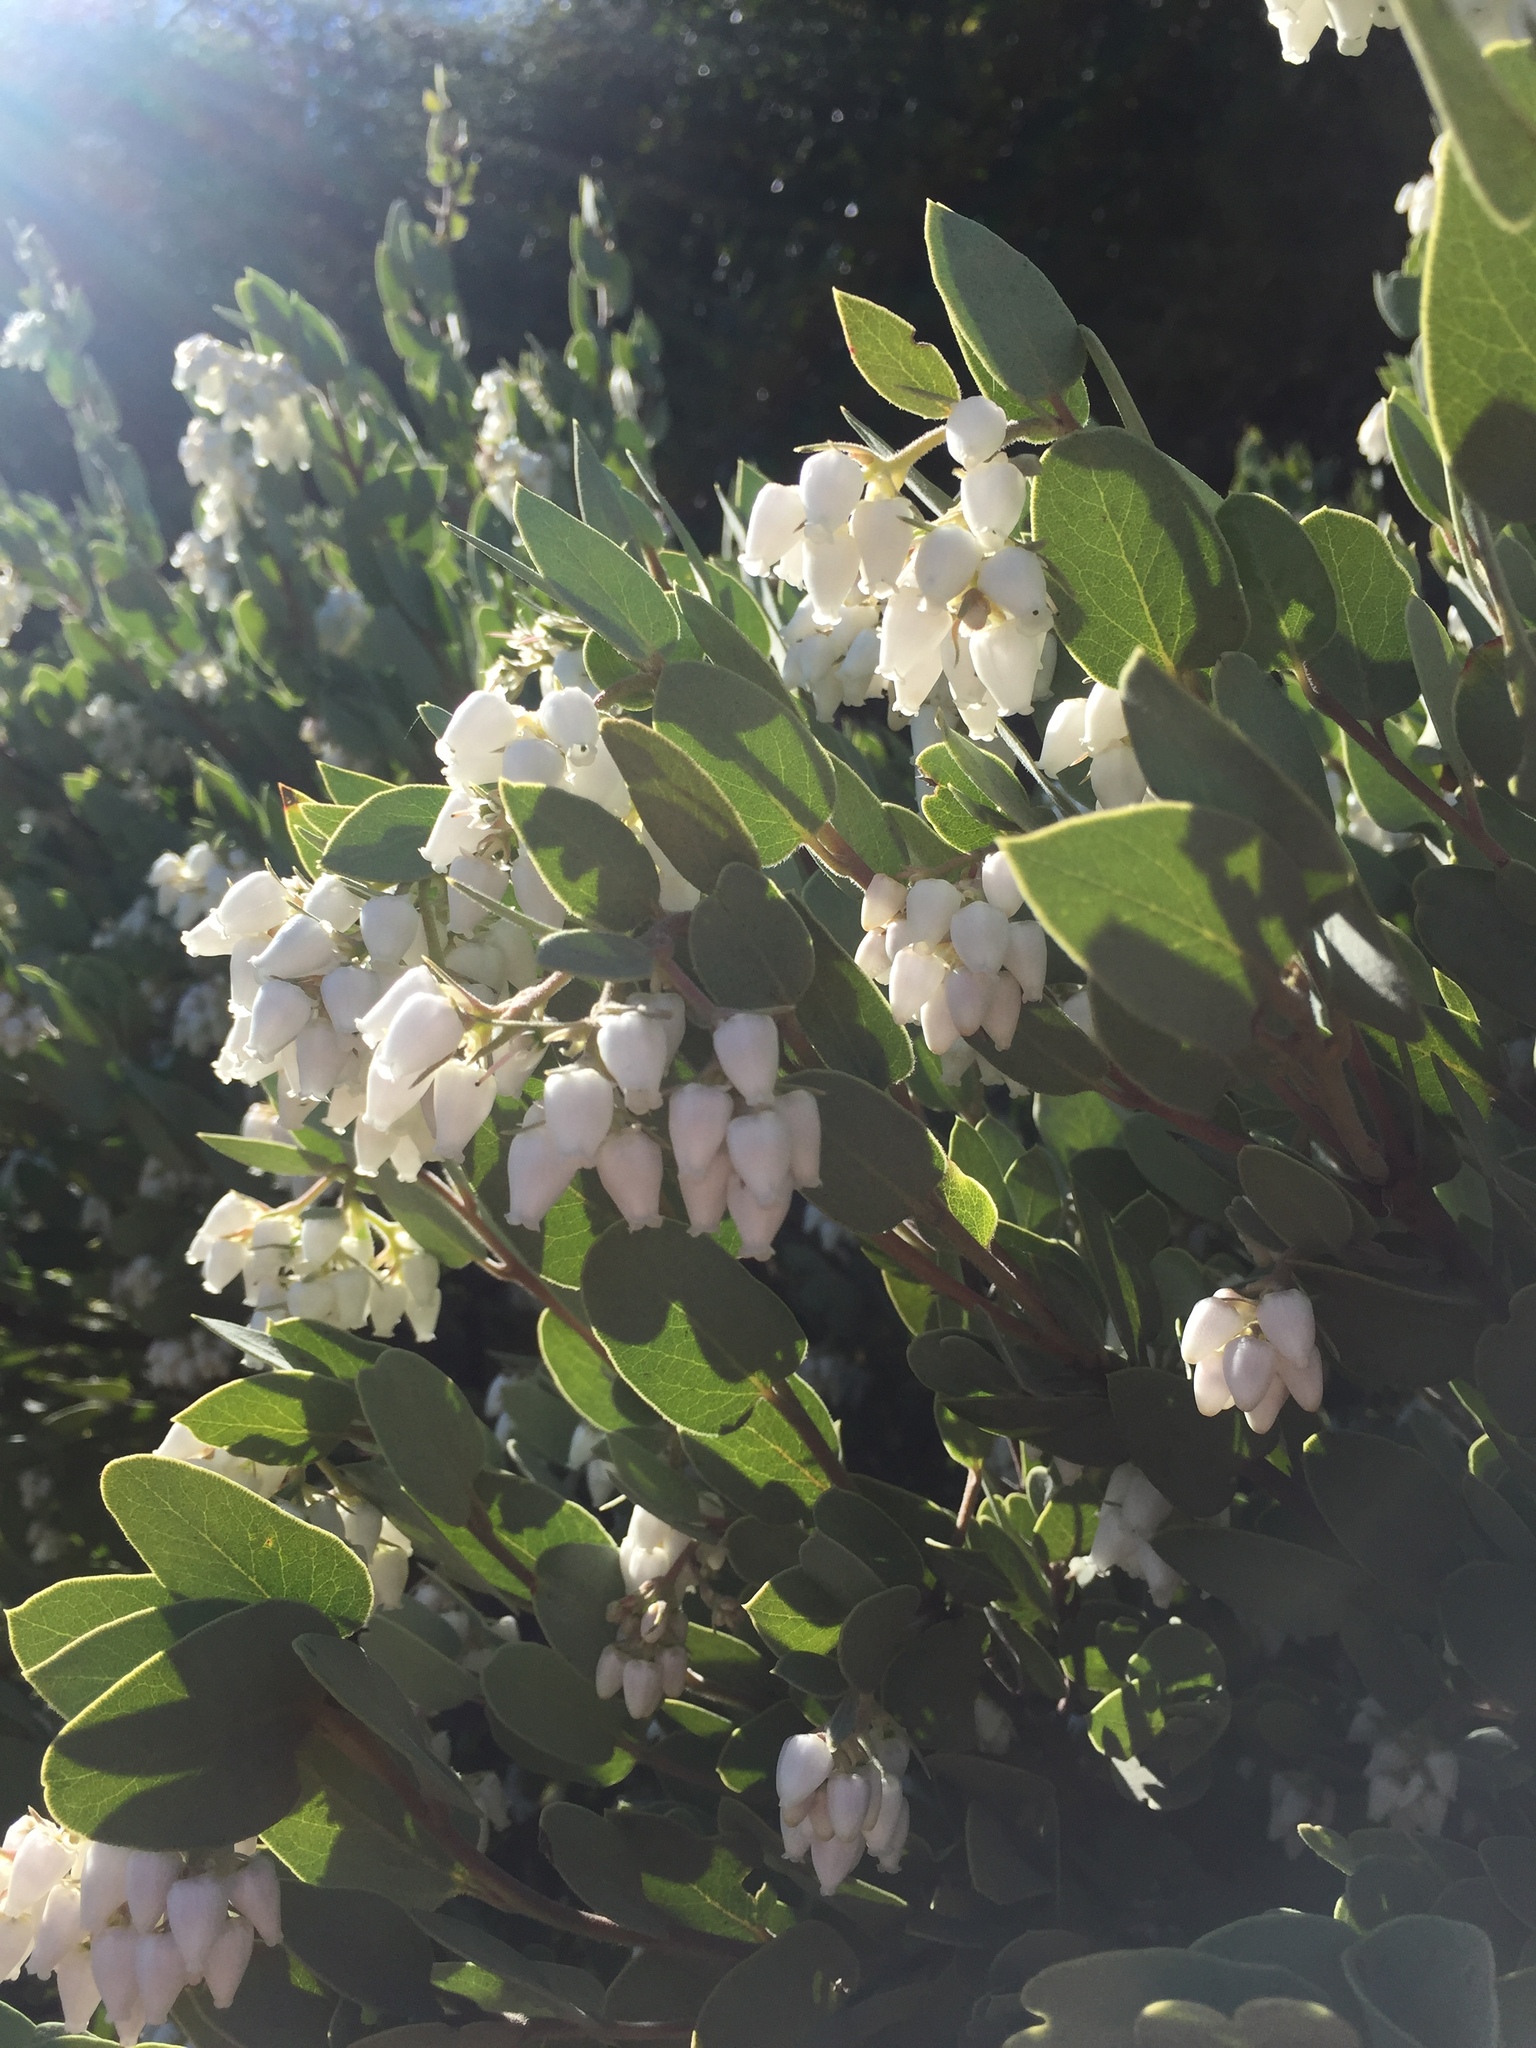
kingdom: Plantae
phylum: Tracheophyta
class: Magnoliopsida
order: Ericales
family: Ericaceae
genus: Arctostaphylos
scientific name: Arctostaphylos obispoensis
